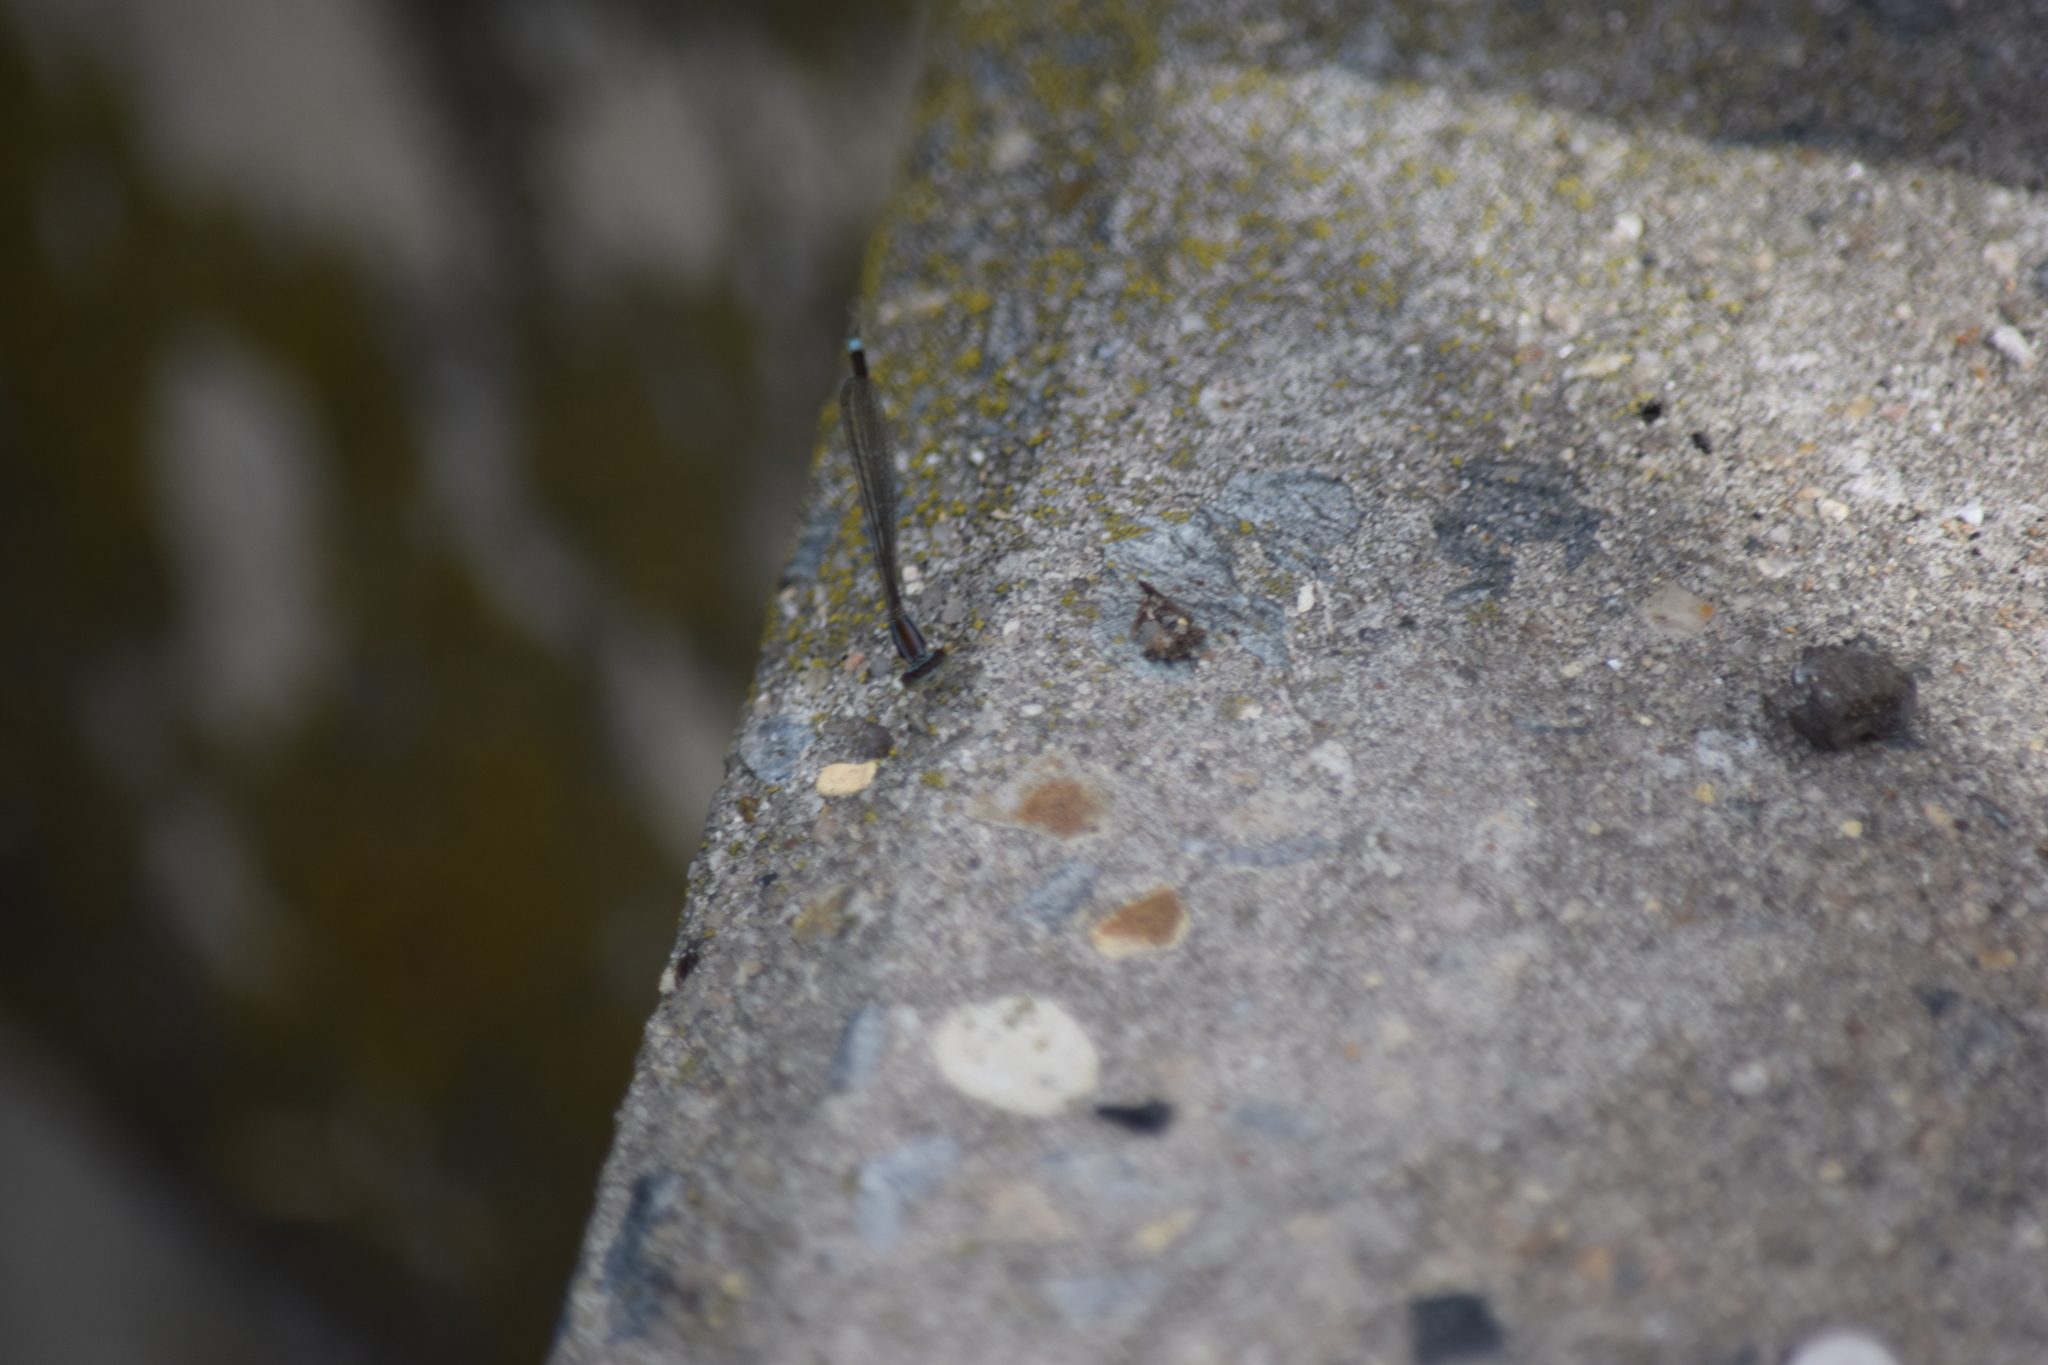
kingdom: Animalia
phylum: Arthropoda
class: Insecta
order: Odonata
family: Coenagrionidae
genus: Enallagma
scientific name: Enallagma signatum
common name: Orange bluet
